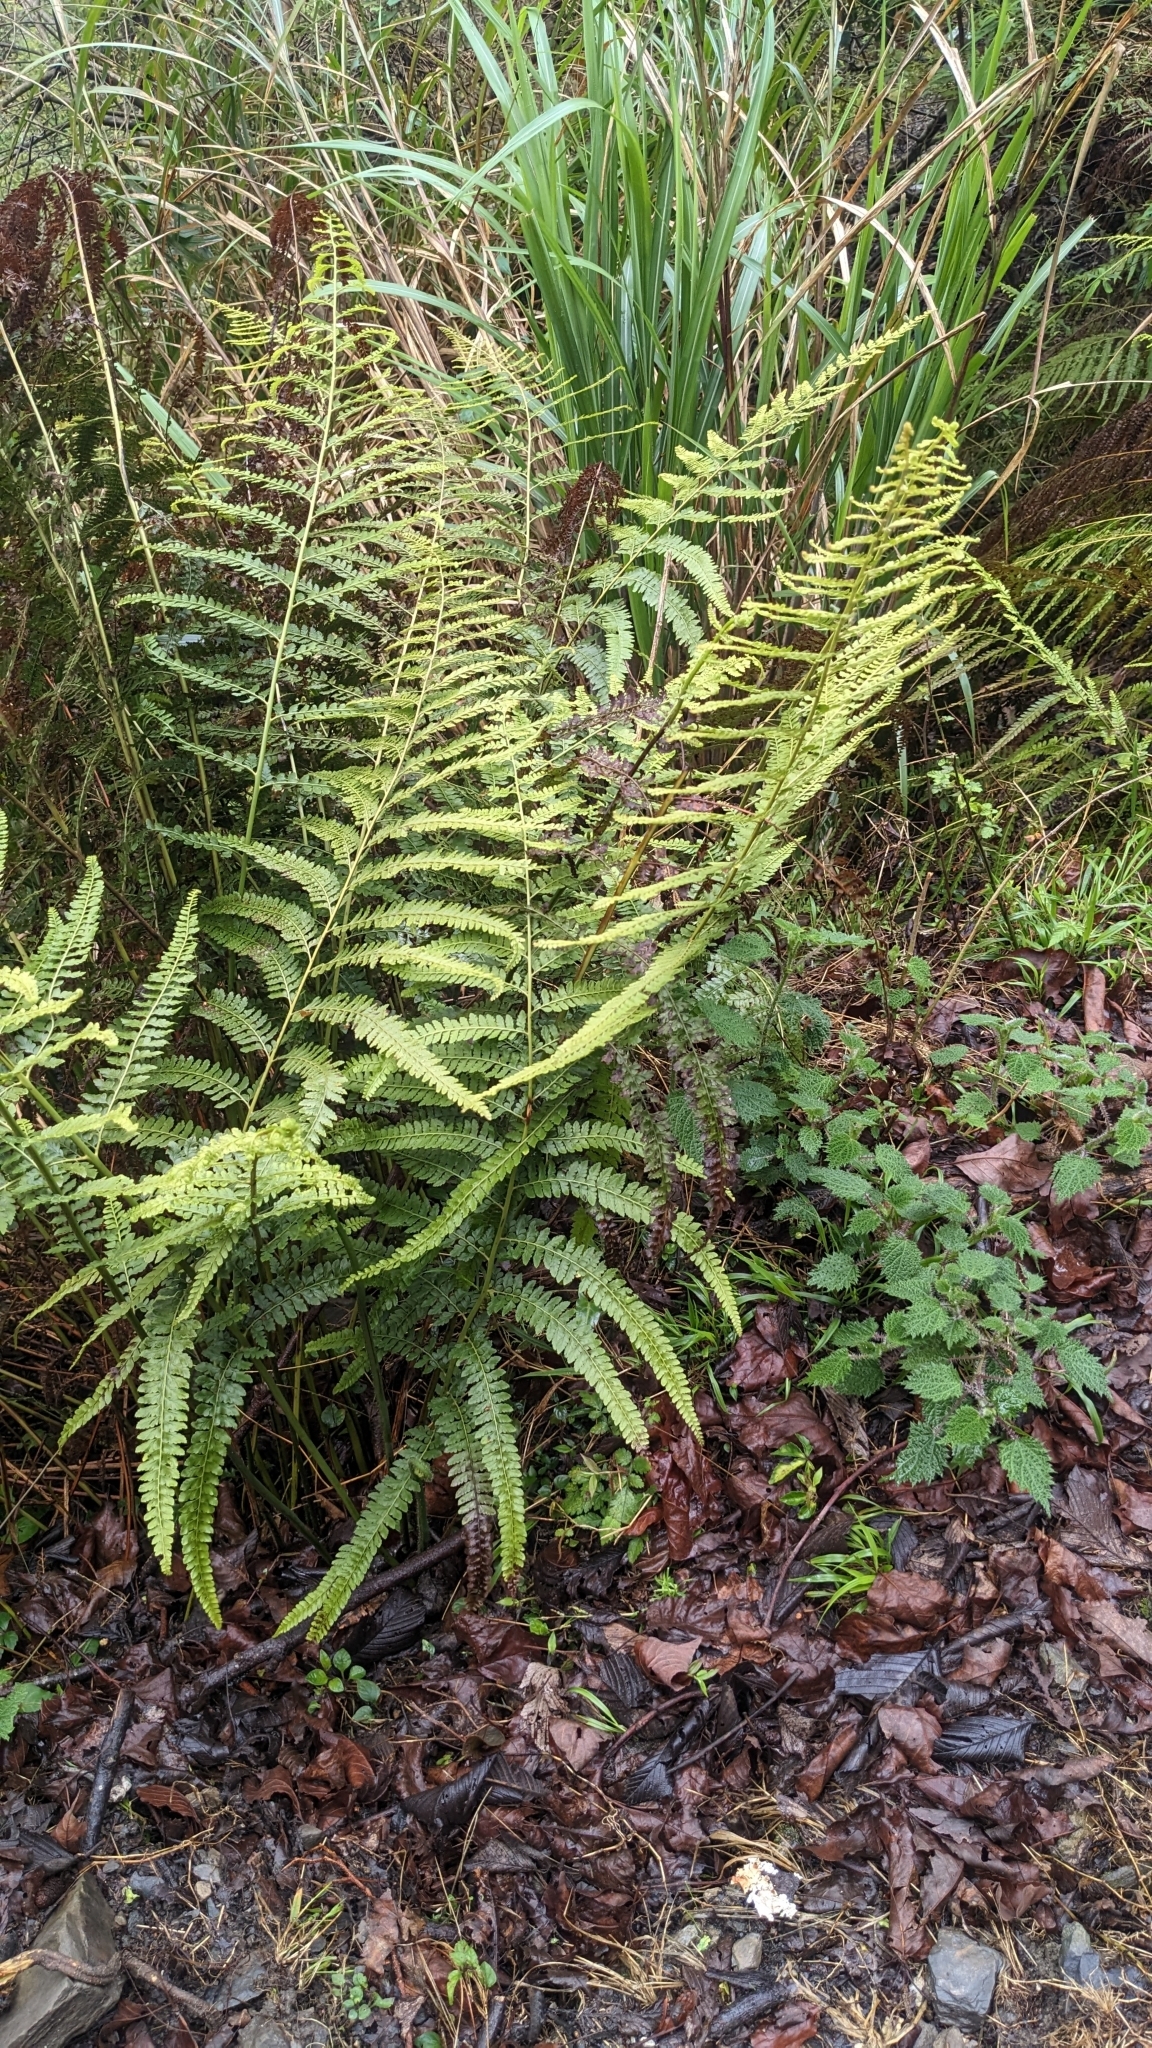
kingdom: Plantae
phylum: Tracheophyta
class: Polypodiopsida
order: Polypodiales
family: Dennstaedtiaceae
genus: Microlepia
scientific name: Microlepia strigosa
